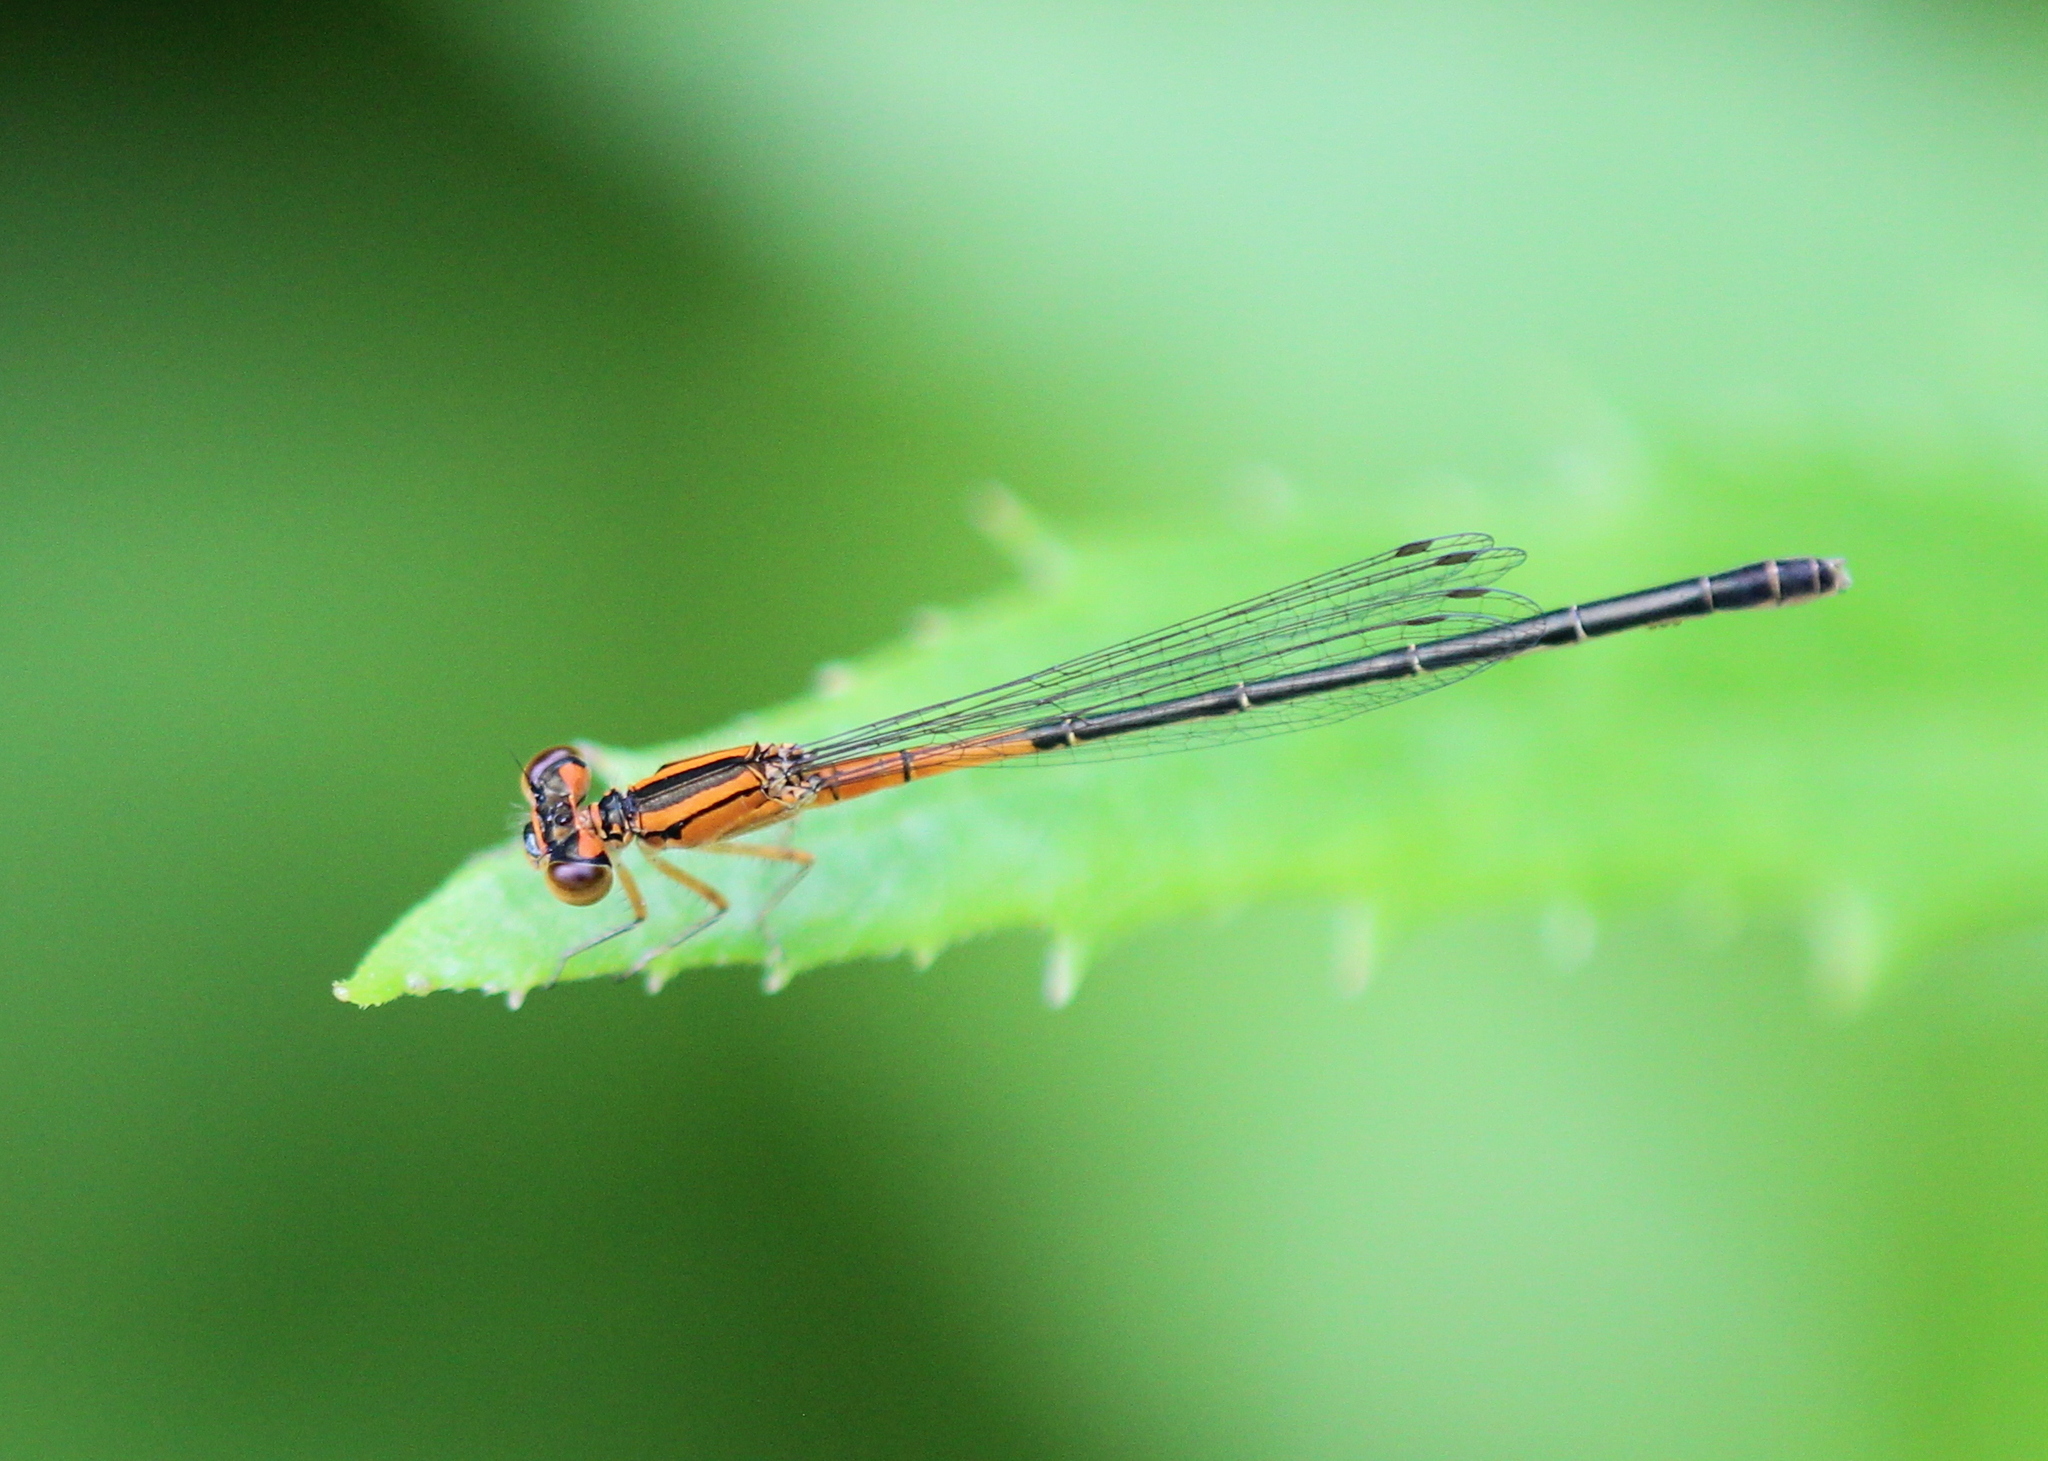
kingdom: Animalia
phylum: Arthropoda
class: Insecta
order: Odonata
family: Coenagrionidae
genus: Ischnura
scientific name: Ischnura verticalis
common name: Eastern forktail
